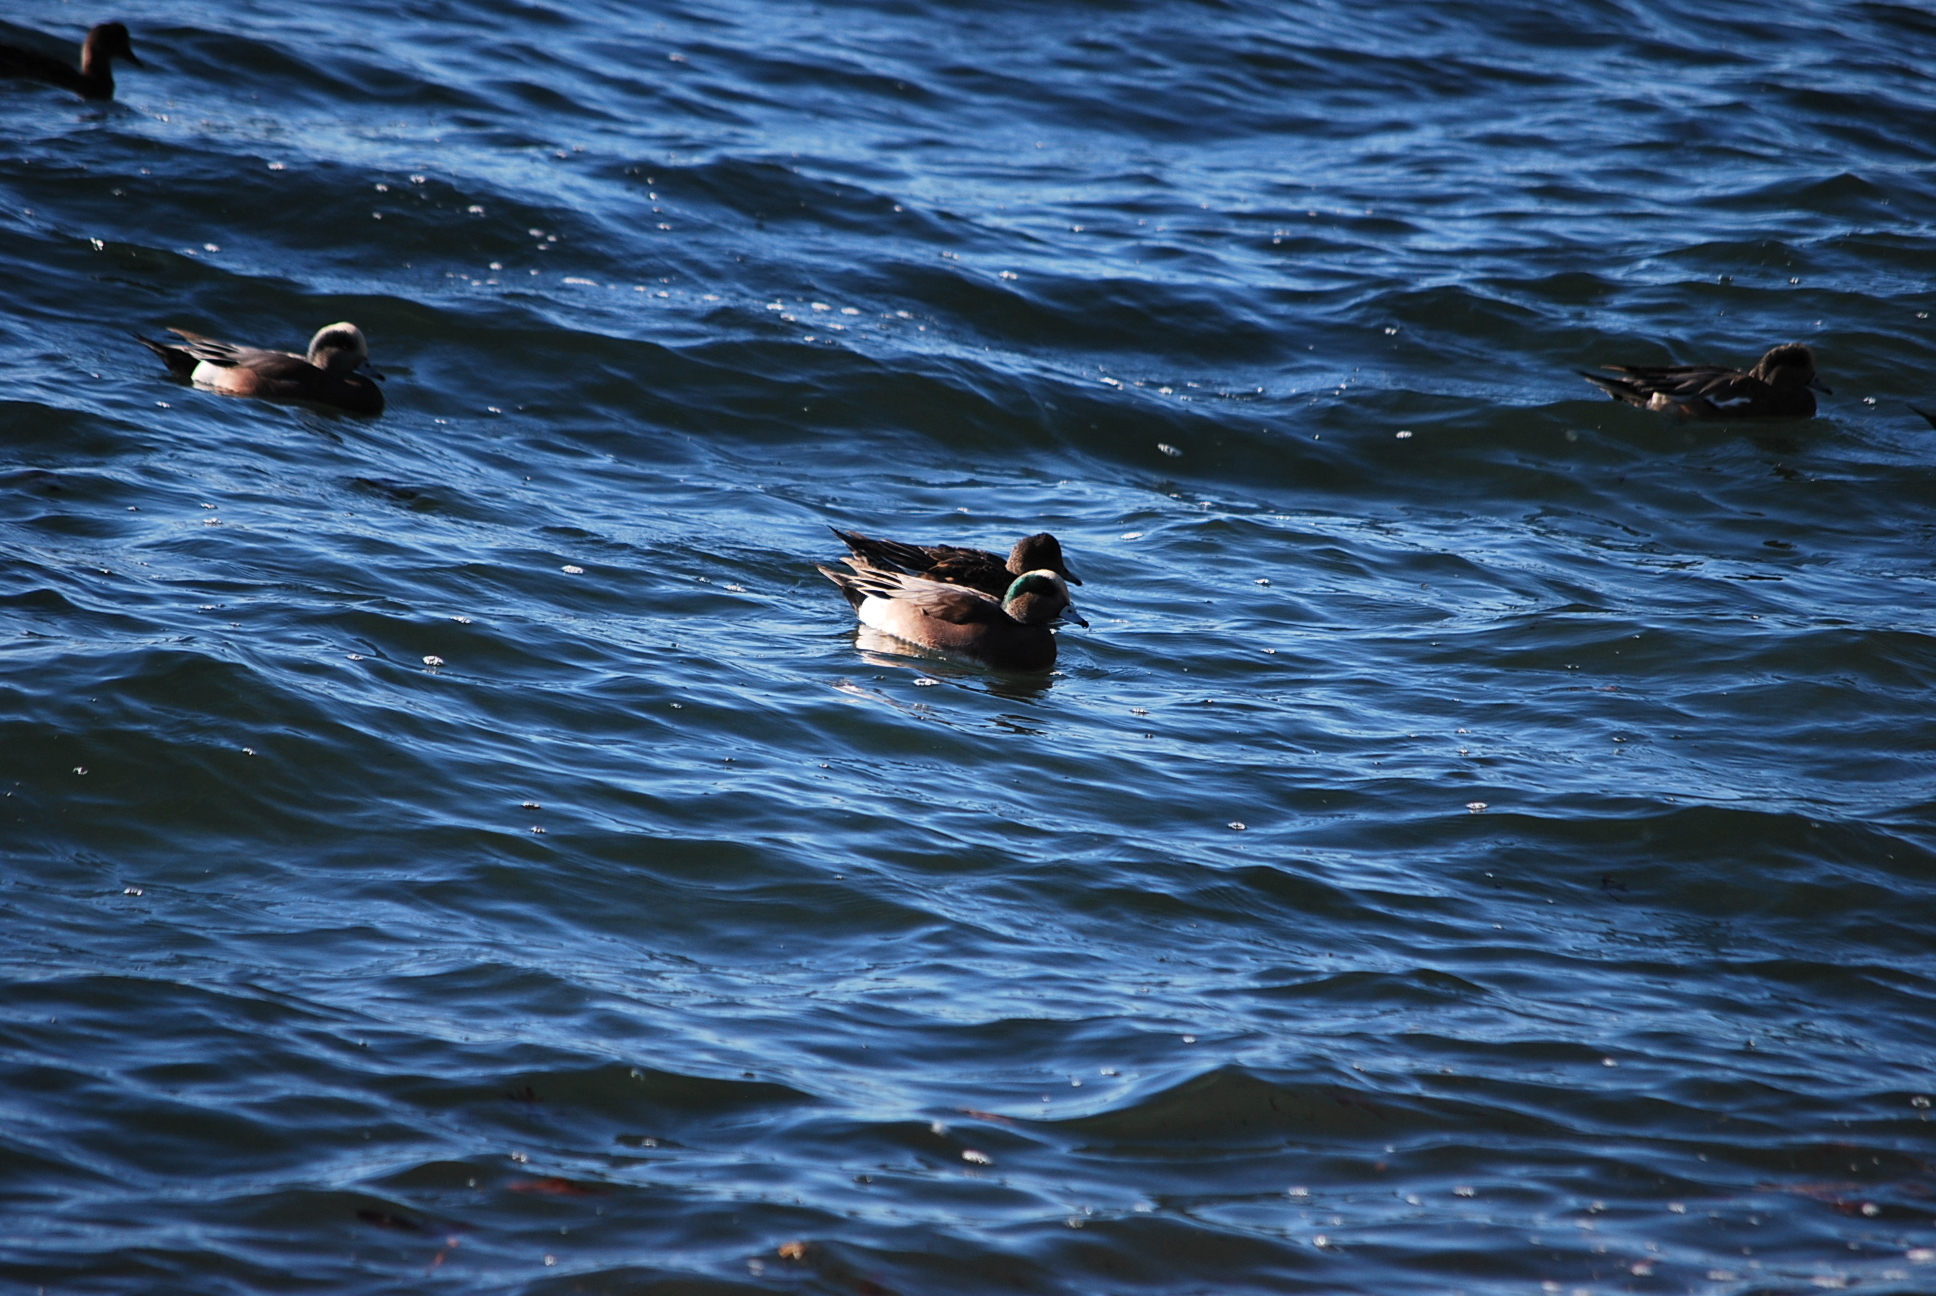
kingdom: Animalia
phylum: Chordata
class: Aves
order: Anseriformes
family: Anatidae
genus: Mareca
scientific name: Mareca americana
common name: American wigeon
